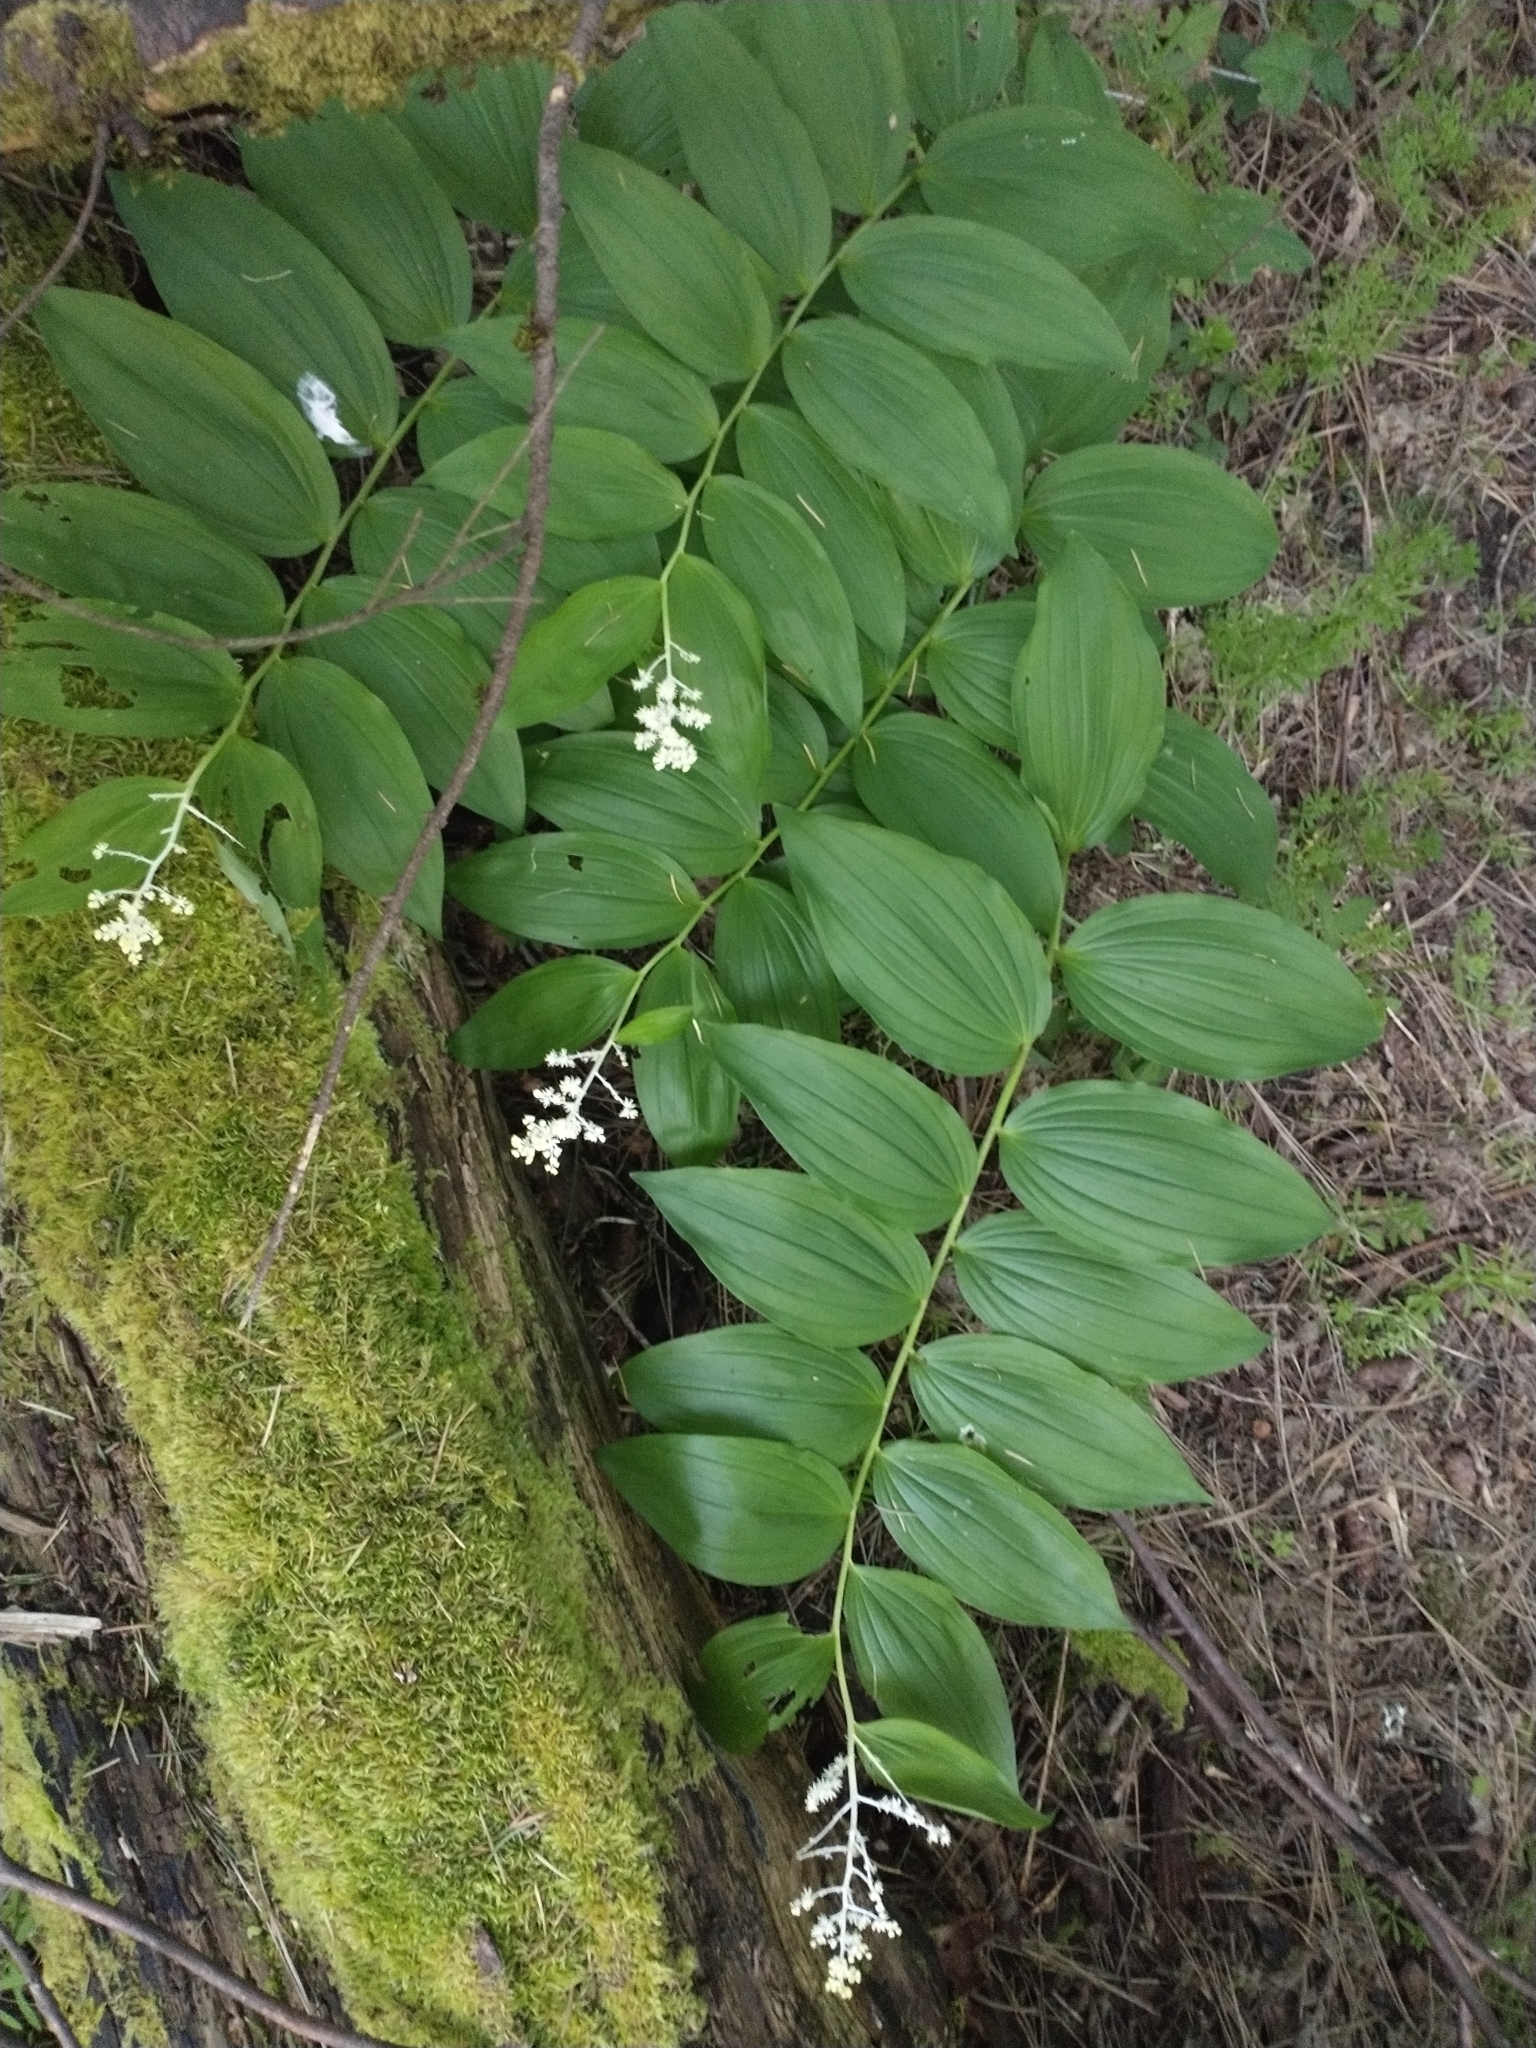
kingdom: Plantae
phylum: Tracheophyta
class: Liliopsida
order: Asparagales
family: Asparagaceae
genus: Maianthemum
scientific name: Maianthemum racemosum
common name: False spikenard
